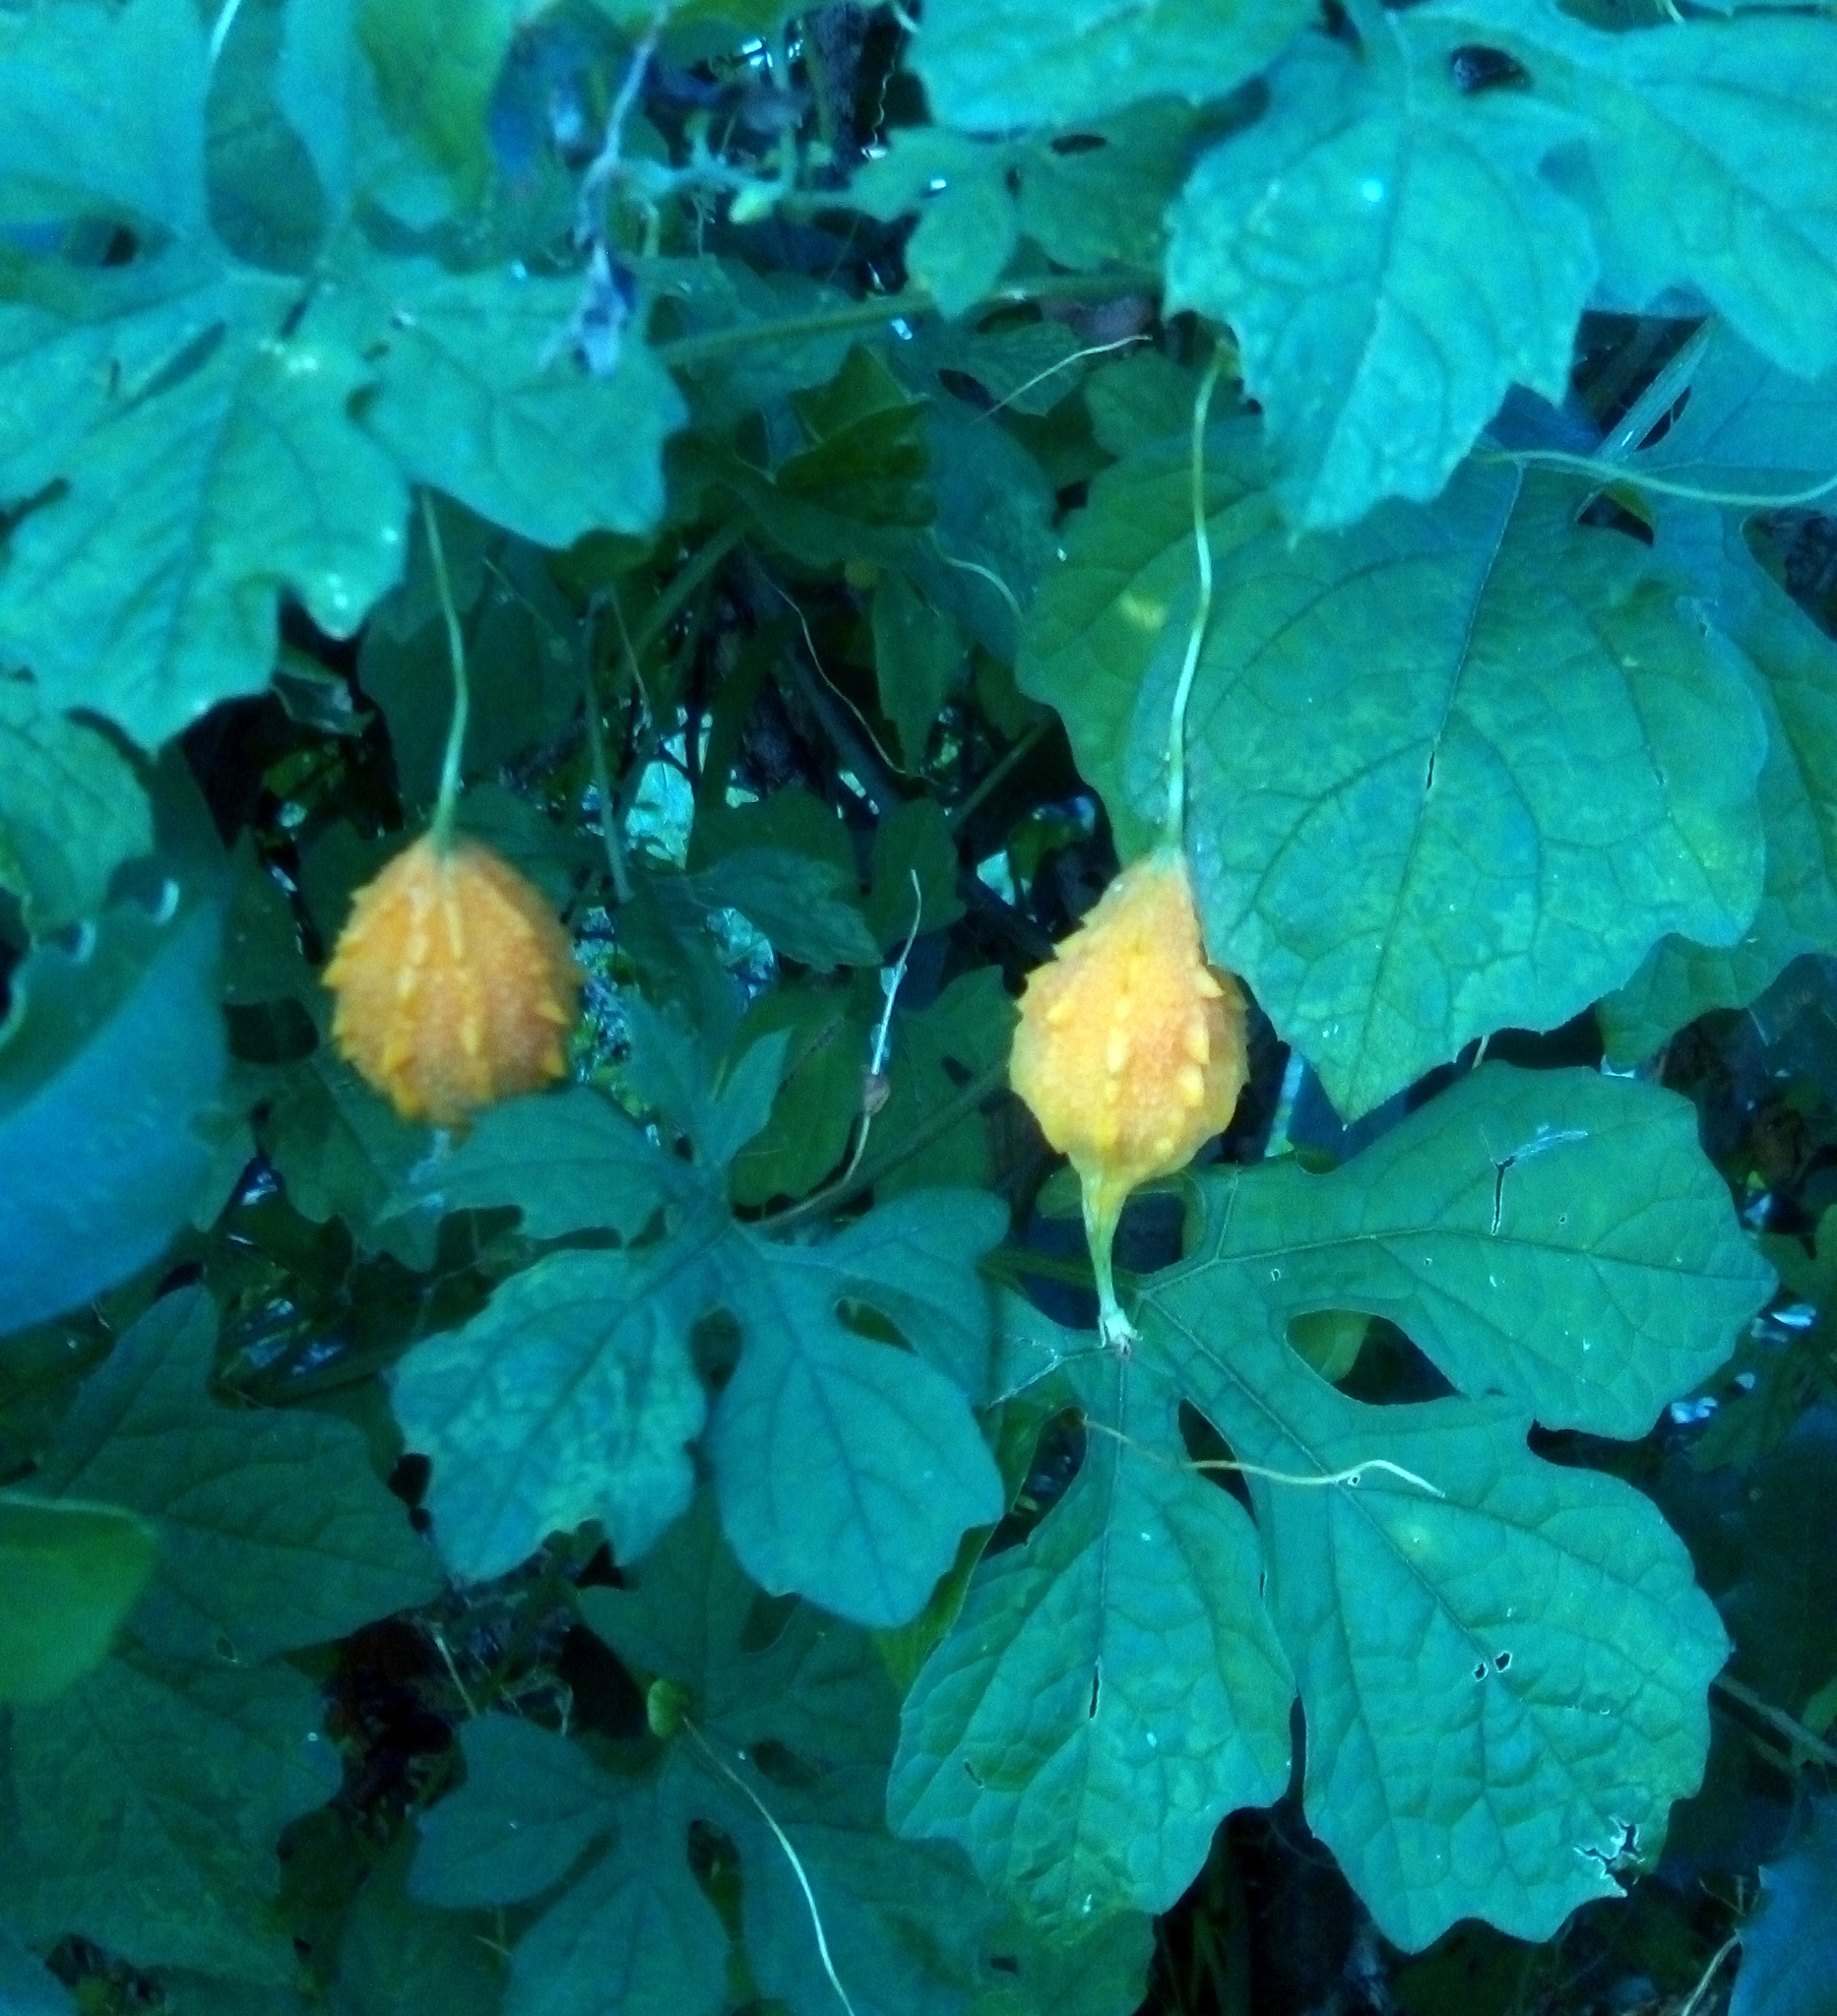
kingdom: Plantae
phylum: Tracheophyta
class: Magnoliopsida
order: Cucurbitales
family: Cucurbitaceae
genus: Momordica
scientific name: Momordica charantia
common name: Balsampear
